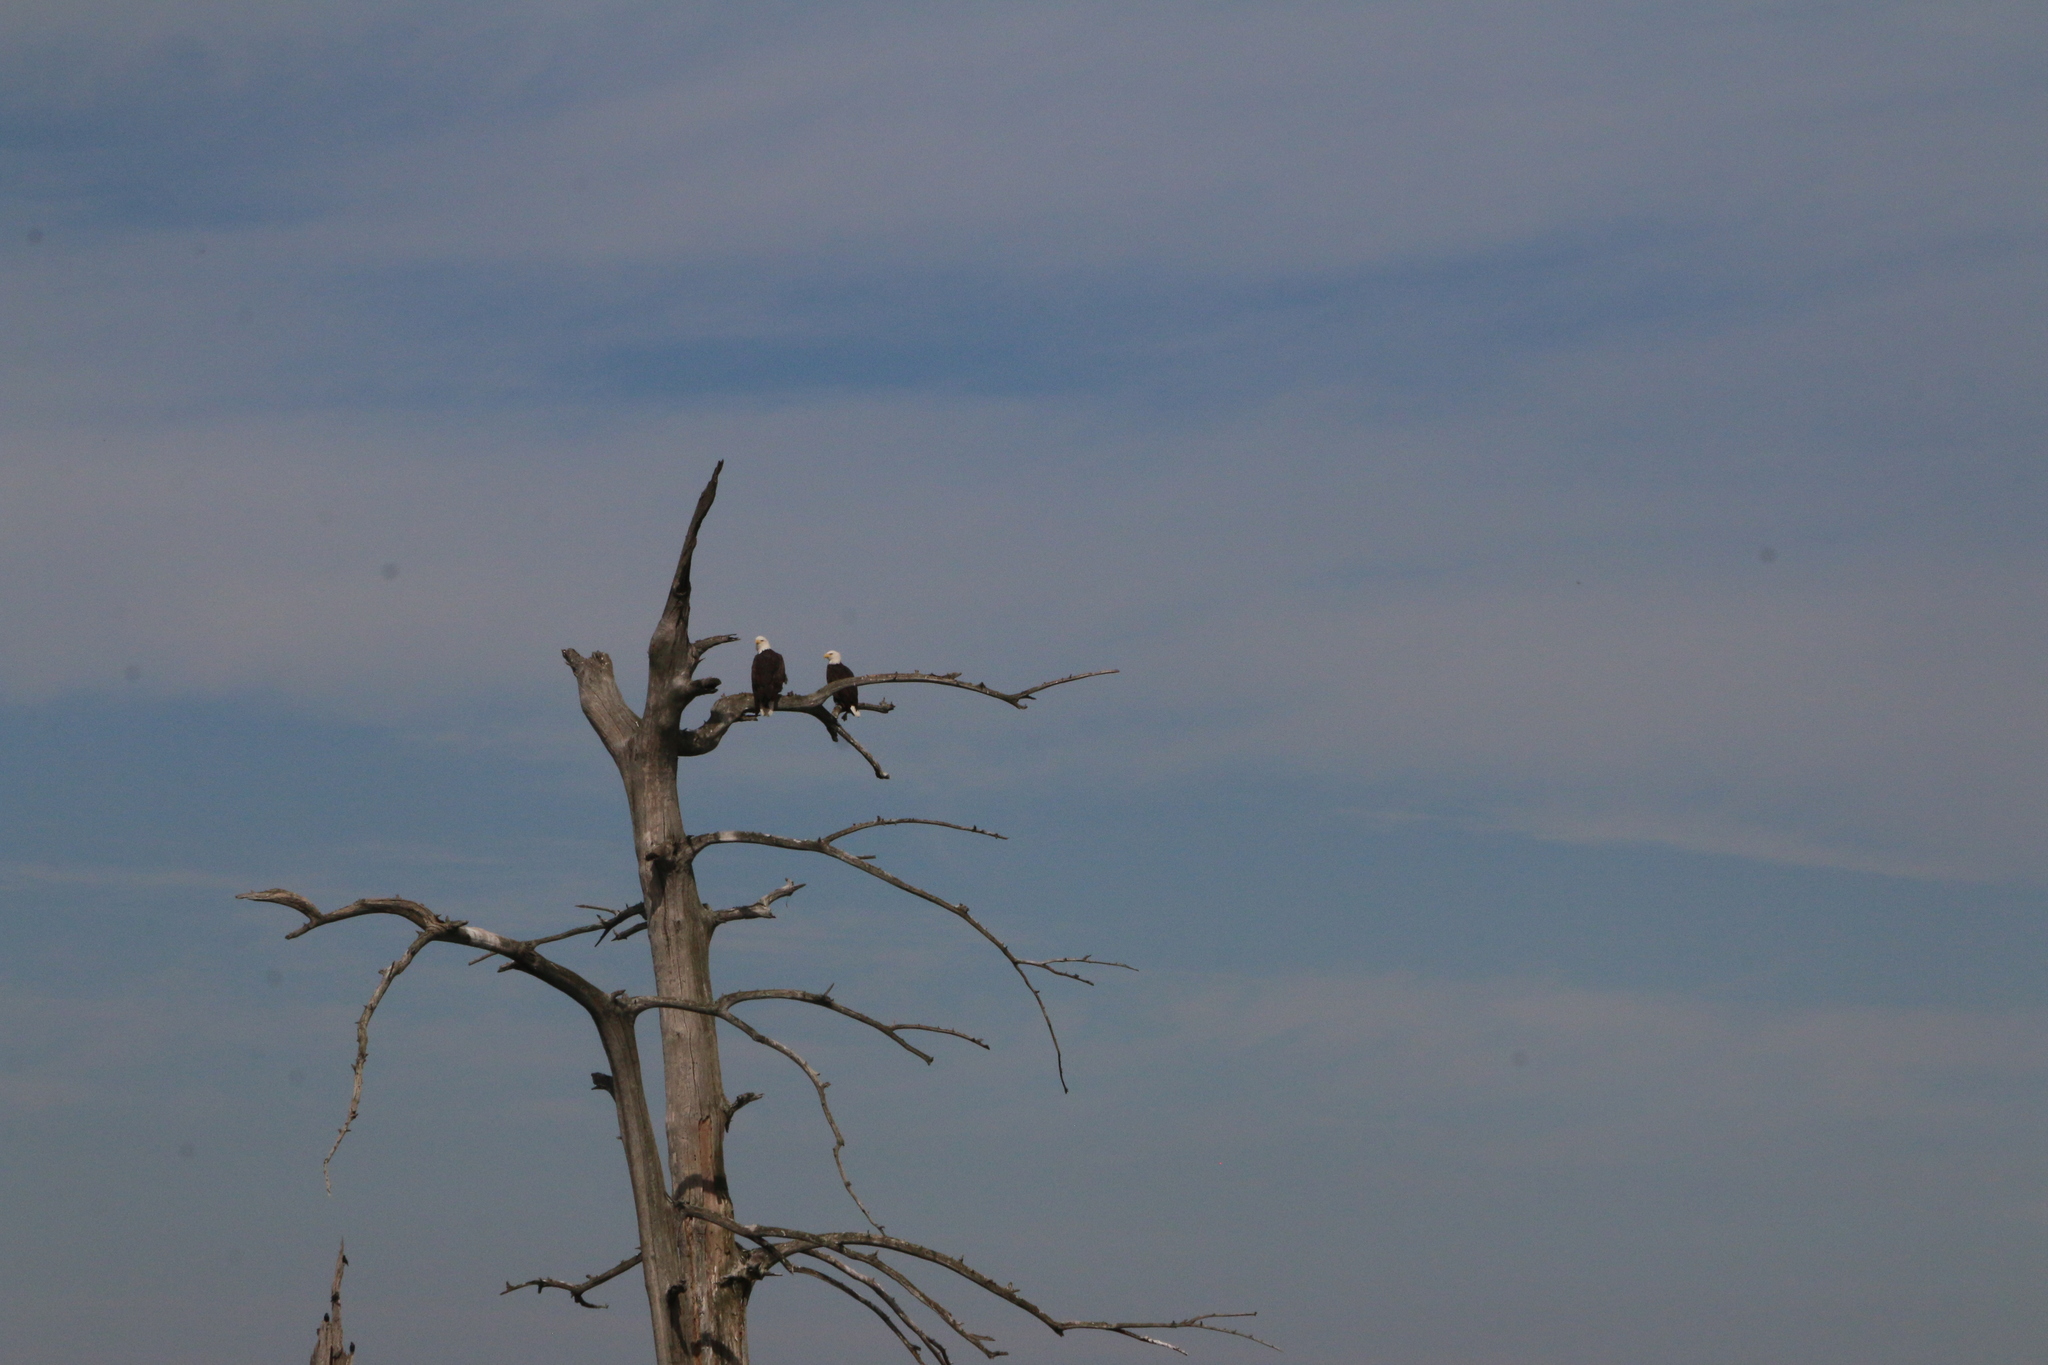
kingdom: Animalia
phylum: Chordata
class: Aves
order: Accipitriformes
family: Accipitridae
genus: Haliaeetus
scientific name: Haliaeetus leucocephalus
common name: Bald eagle
